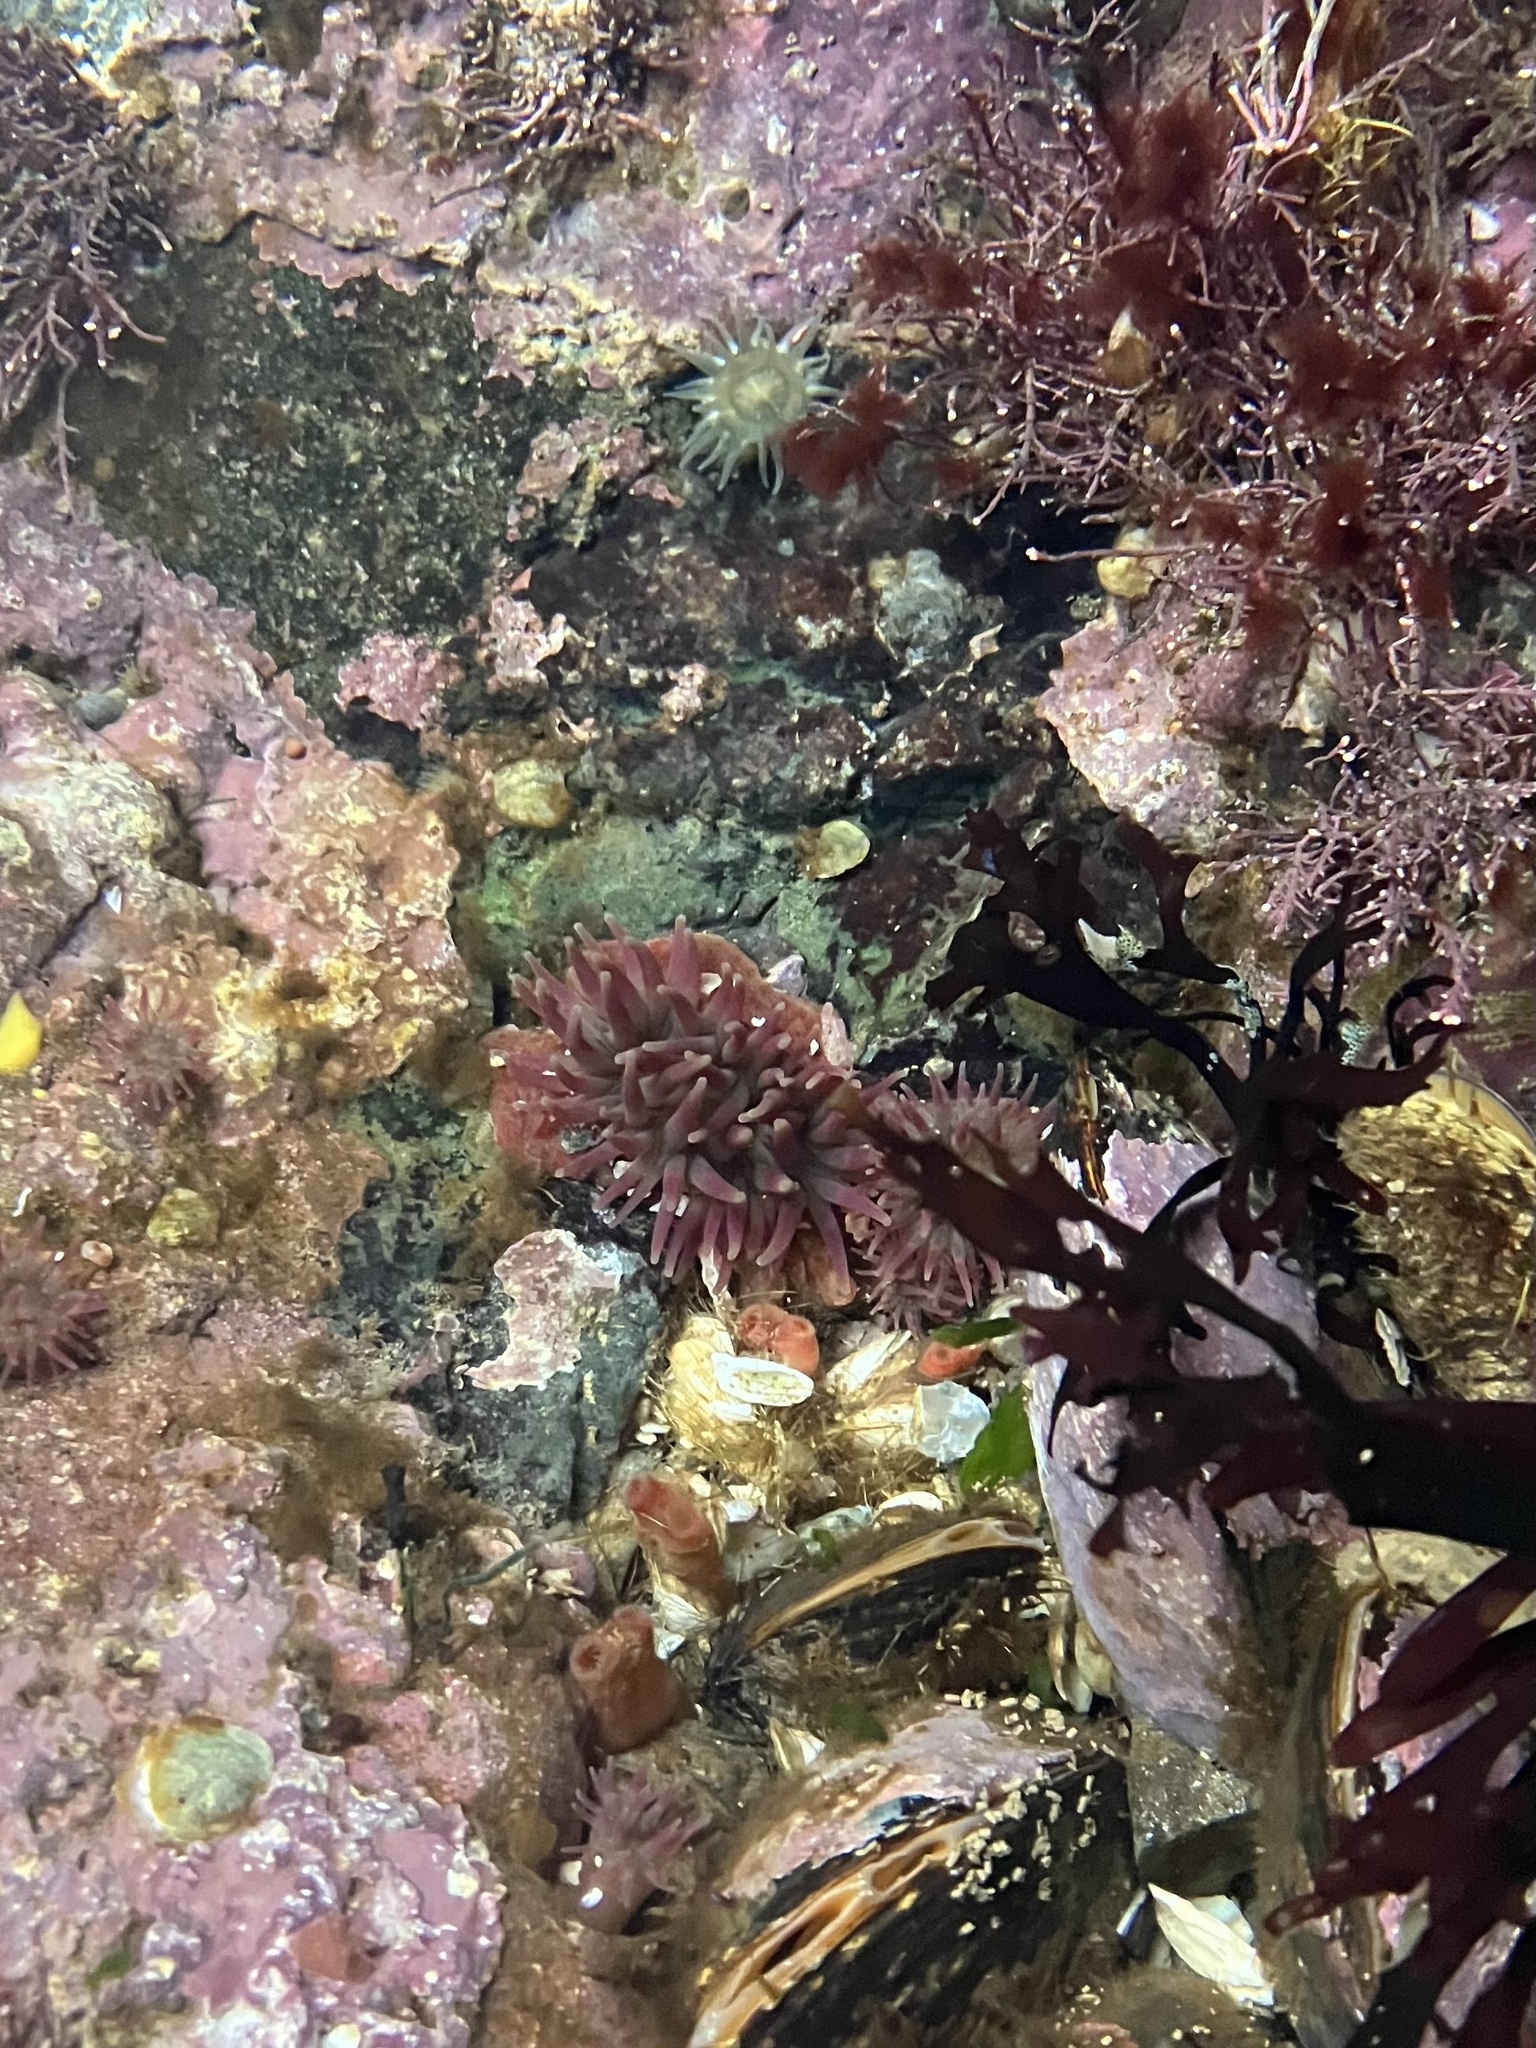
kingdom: Animalia
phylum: Cnidaria
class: Anthozoa
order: Actiniaria
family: Actiniidae
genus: Urticina
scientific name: Urticina crassicornis
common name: Mottled anemone
